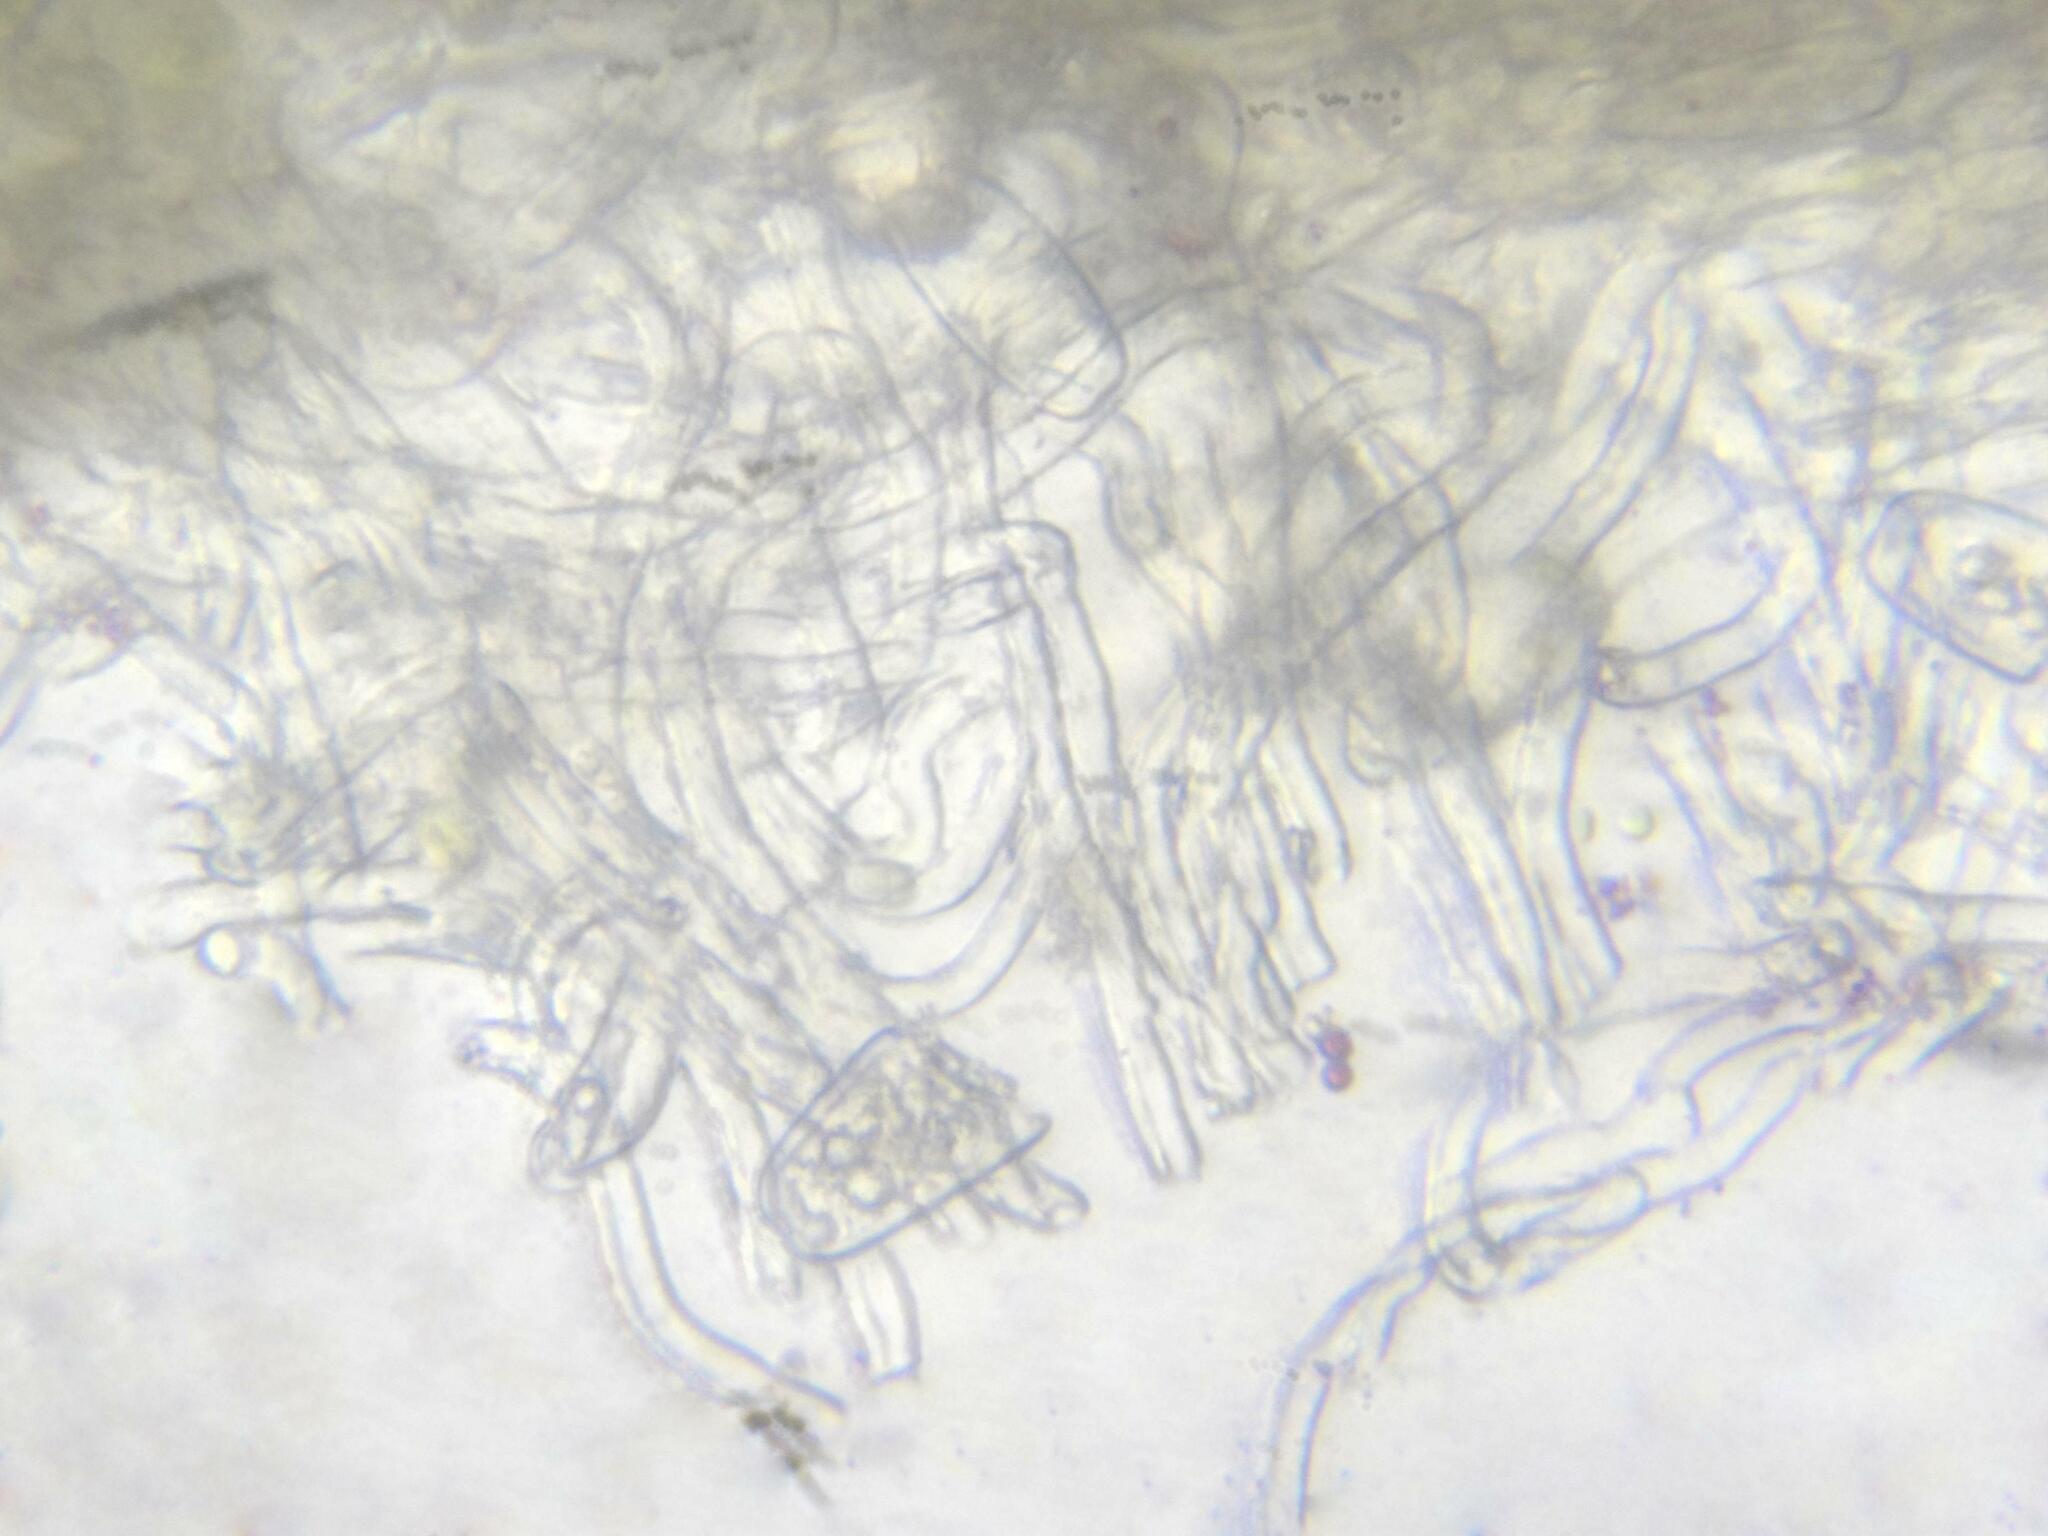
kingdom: Fungi
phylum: Ascomycota
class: Pezizomycetes
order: Pezizales
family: Sarcoscyphaceae
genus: Sarcoscypha
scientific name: Sarcoscypha coccinea
